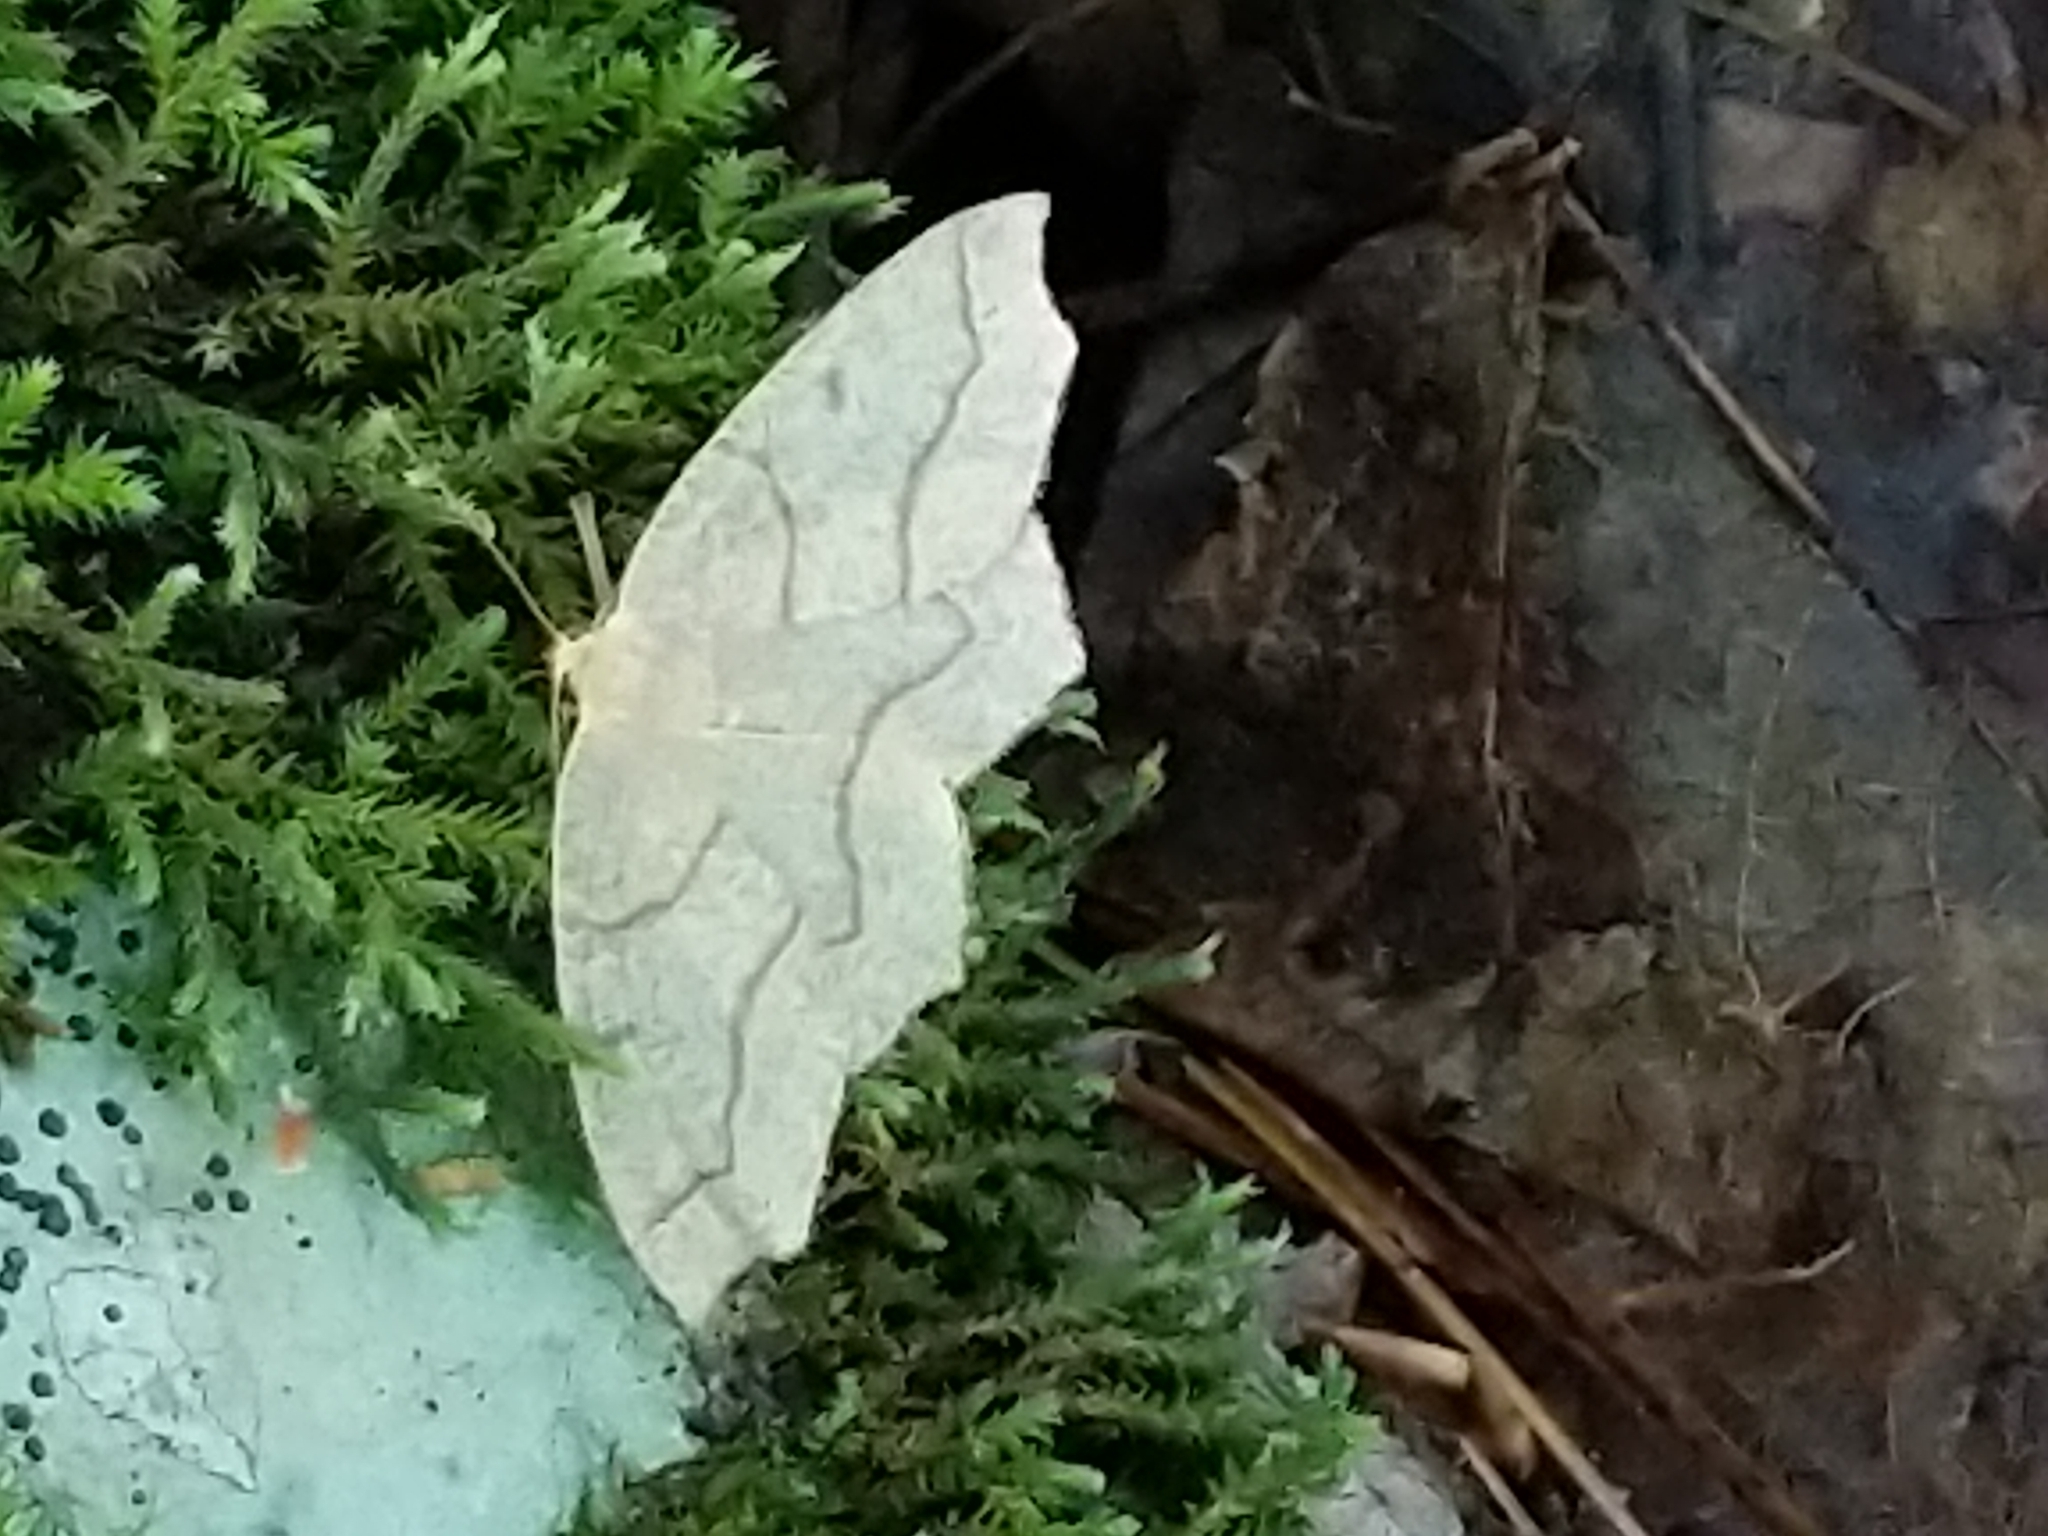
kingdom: Animalia
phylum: Arthropoda
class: Insecta
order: Lepidoptera
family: Geometridae
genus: Lambdina
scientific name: Lambdina fiscellaria
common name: Hemlock looper
